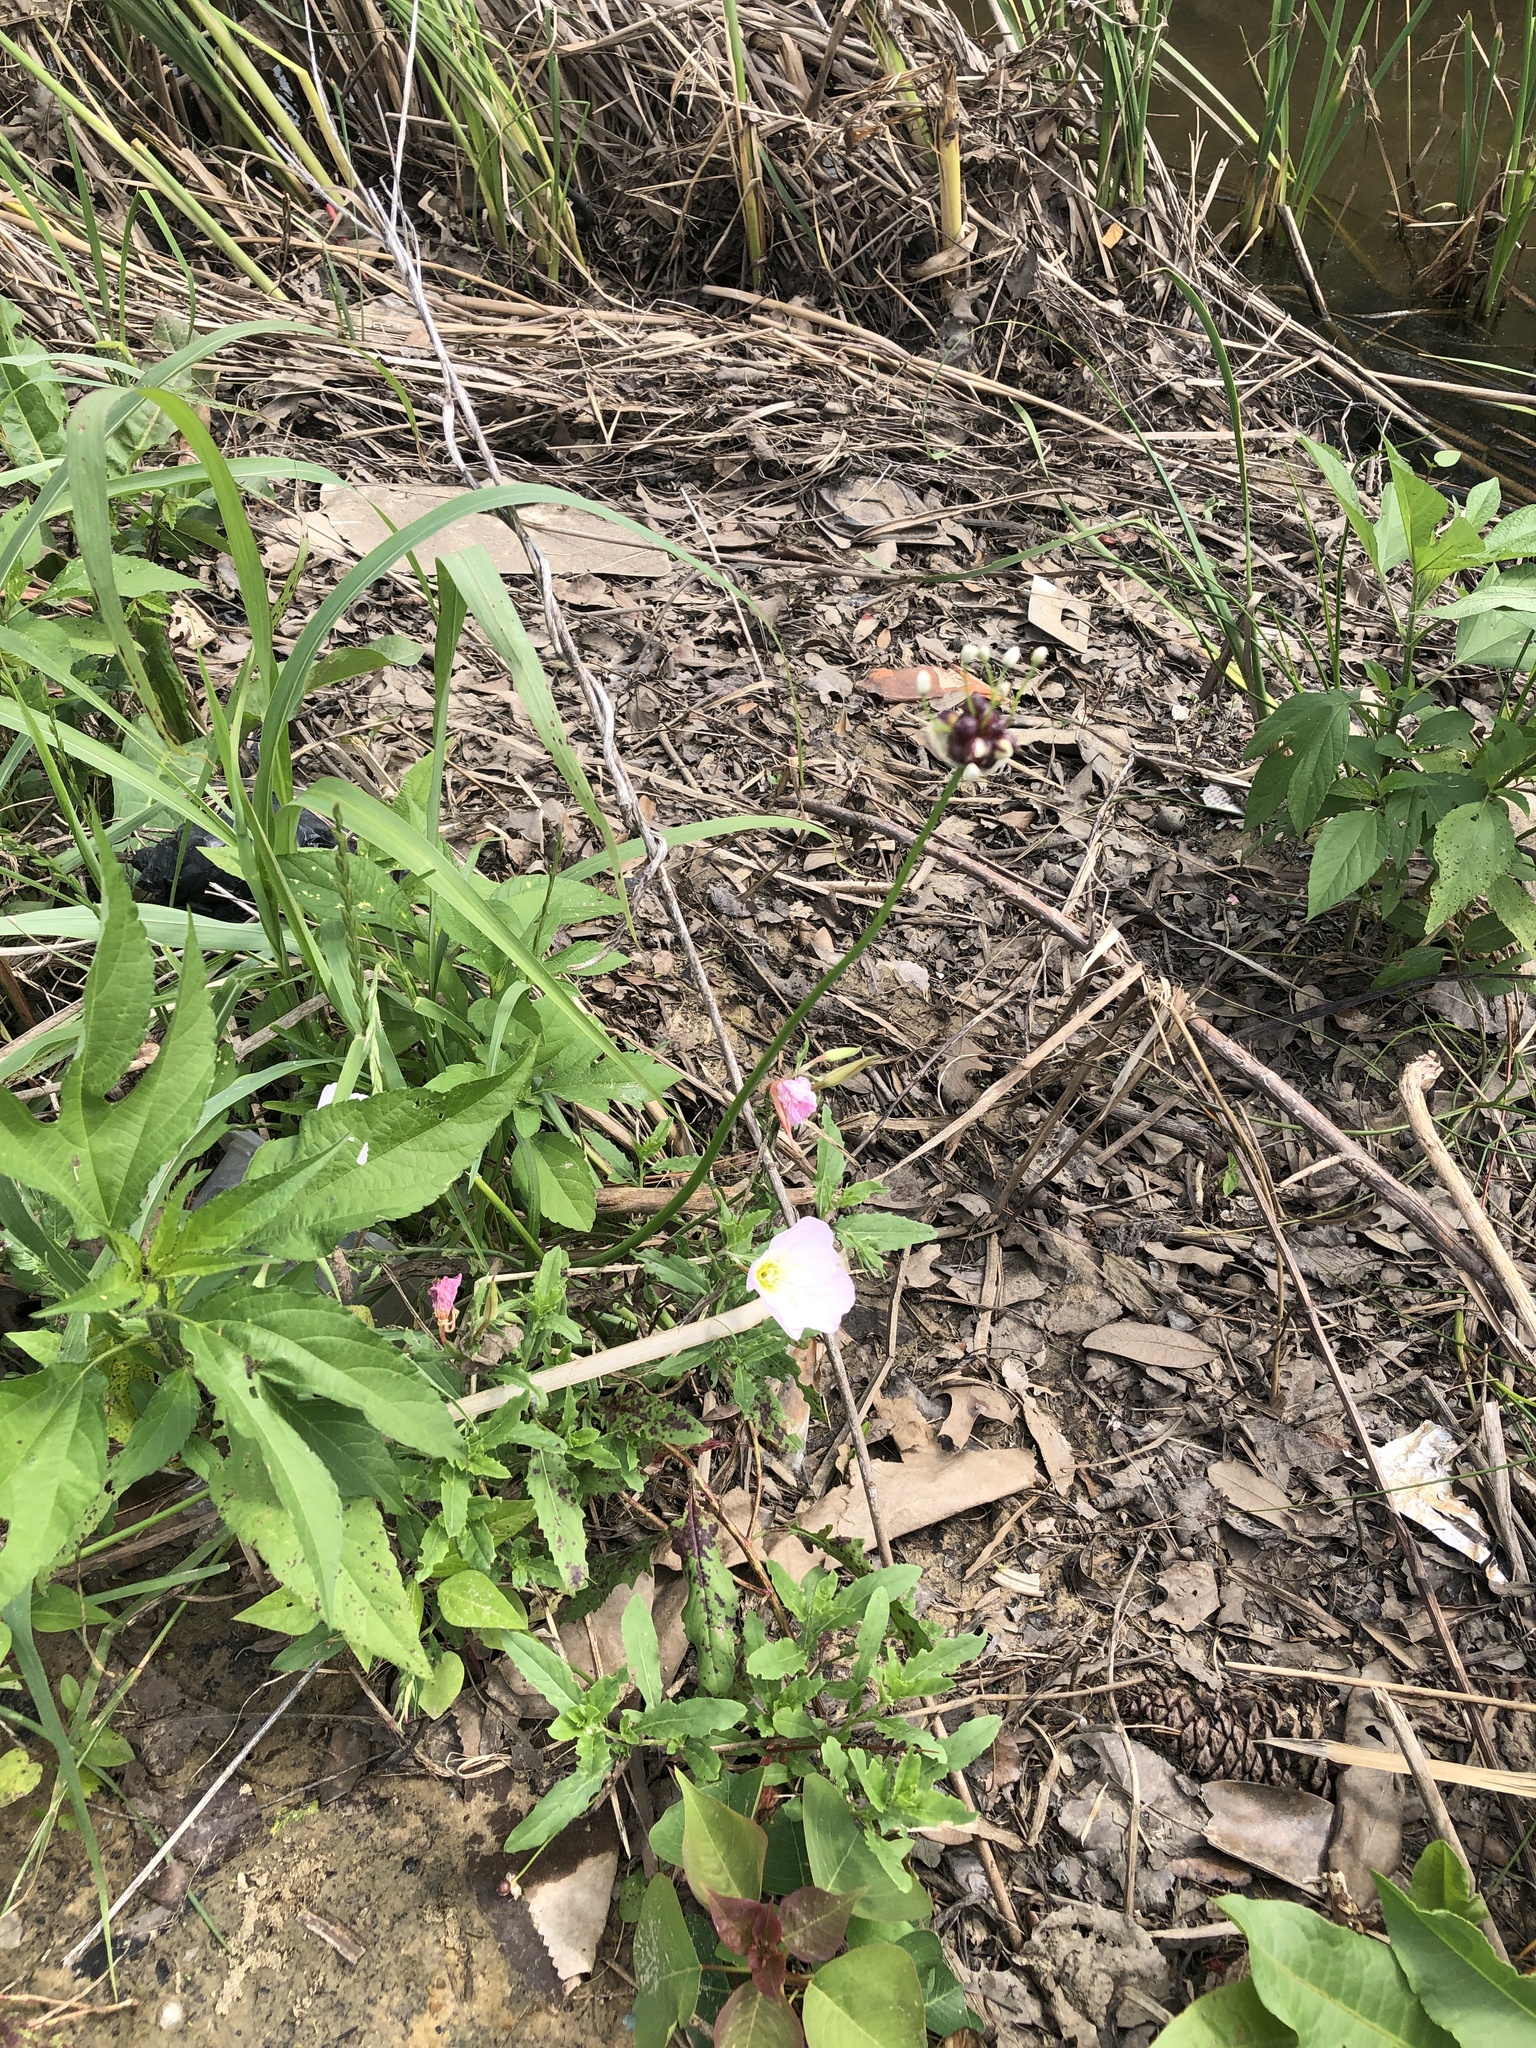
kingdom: Plantae
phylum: Tracheophyta
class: Liliopsida
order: Asparagales
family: Amaryllidaceae
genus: Allium
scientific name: Allium canadense
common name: Meadow garlic
